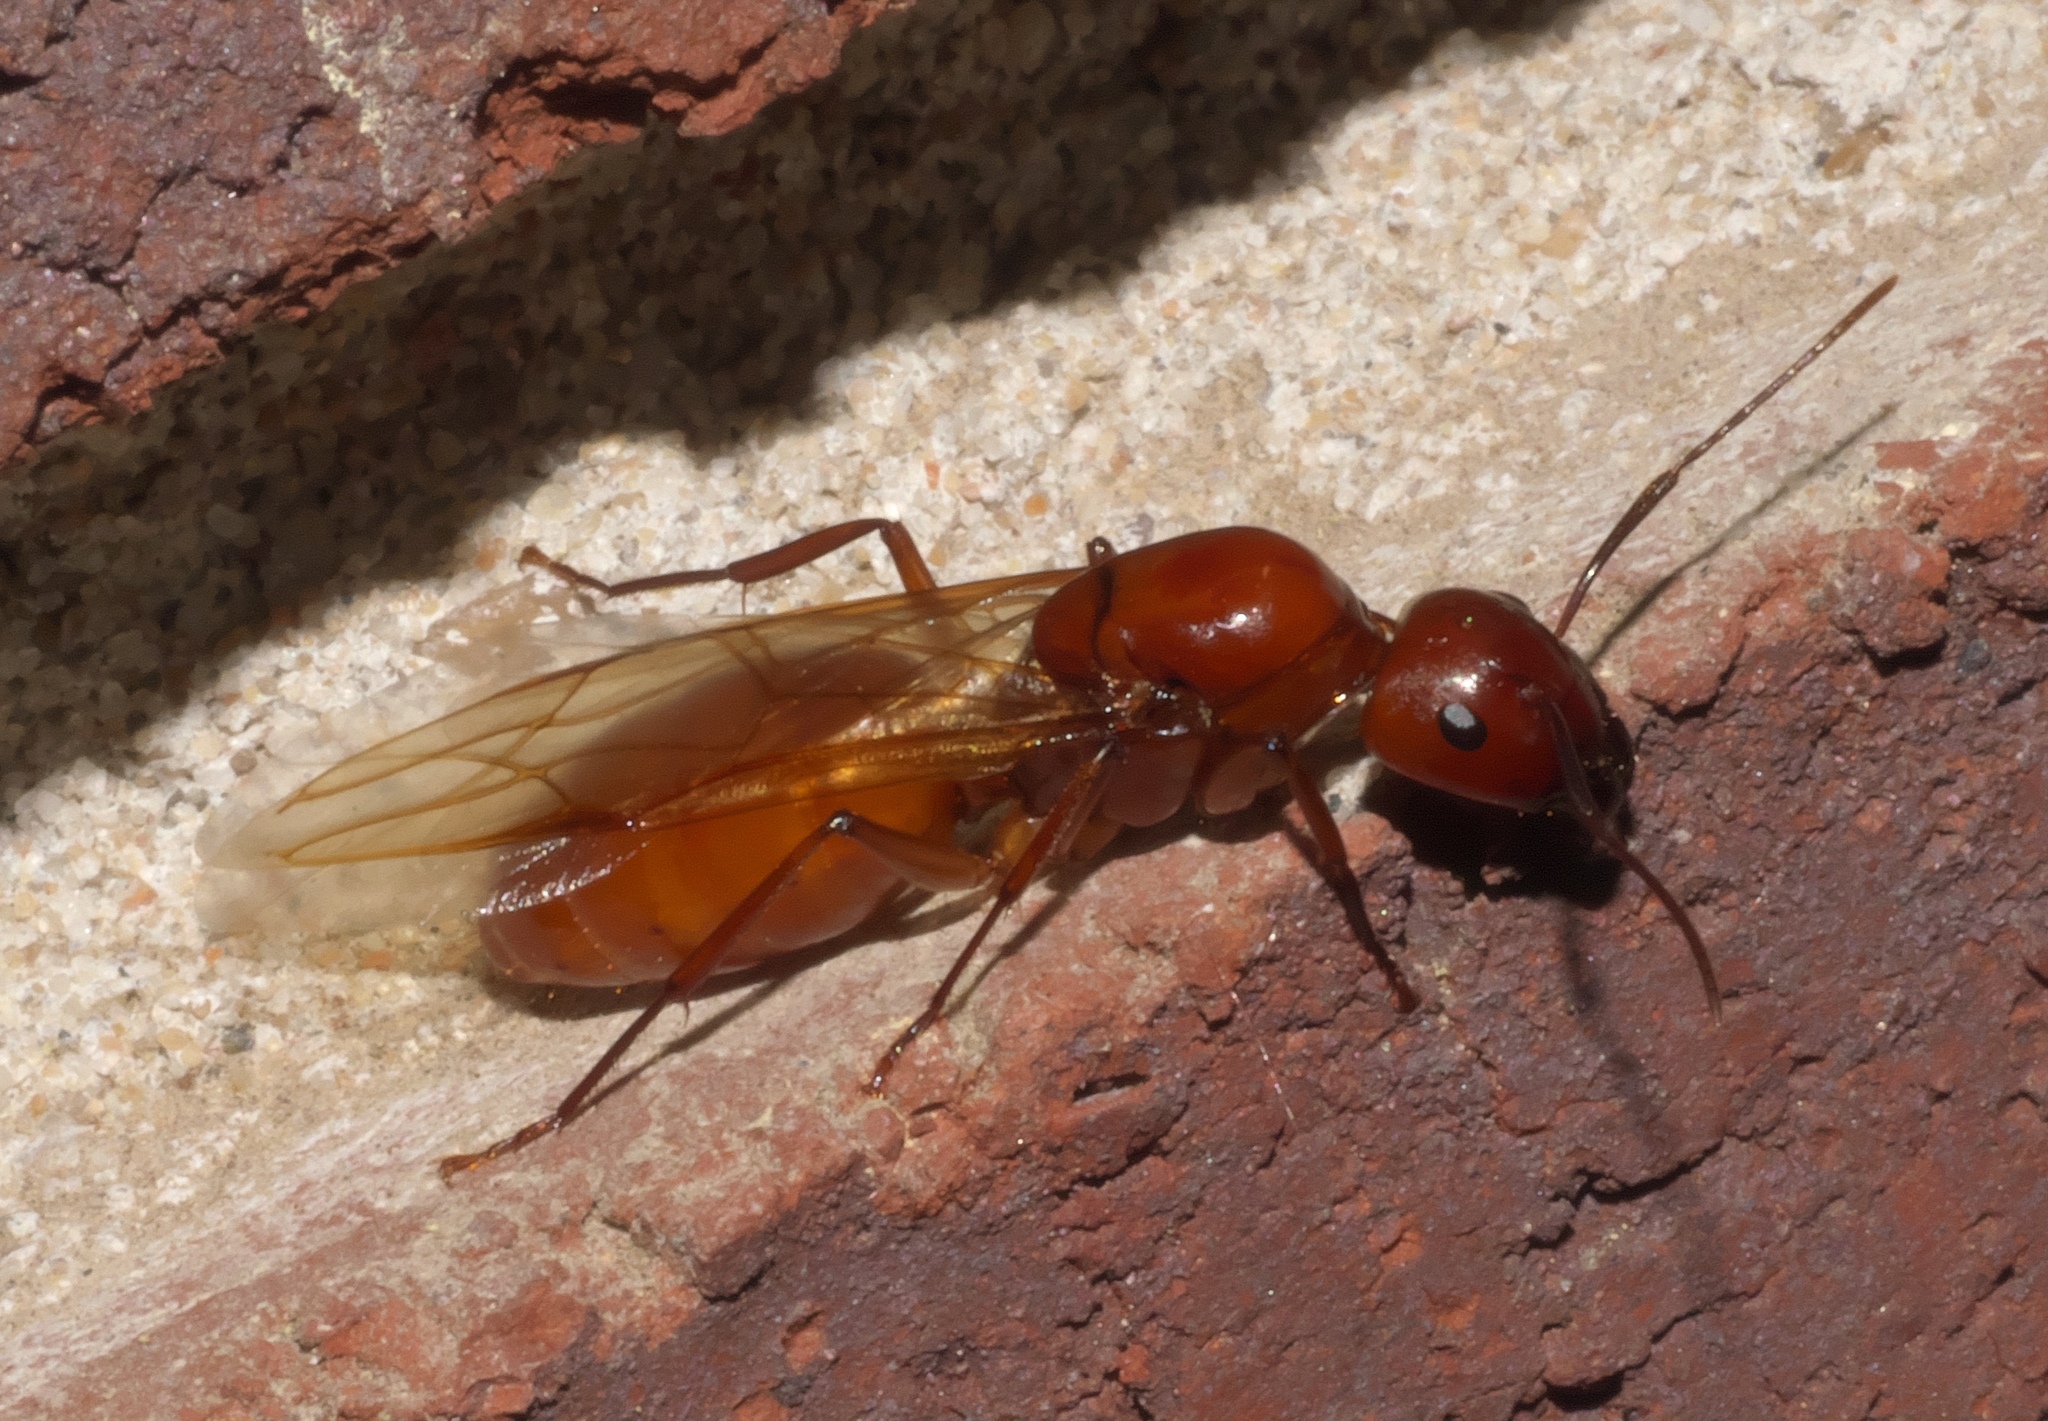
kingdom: Animalia
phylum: Arthropoda
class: Insecta
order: Hymenoptera
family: Formicidae
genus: Camponotus
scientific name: Camponotus castaneus
